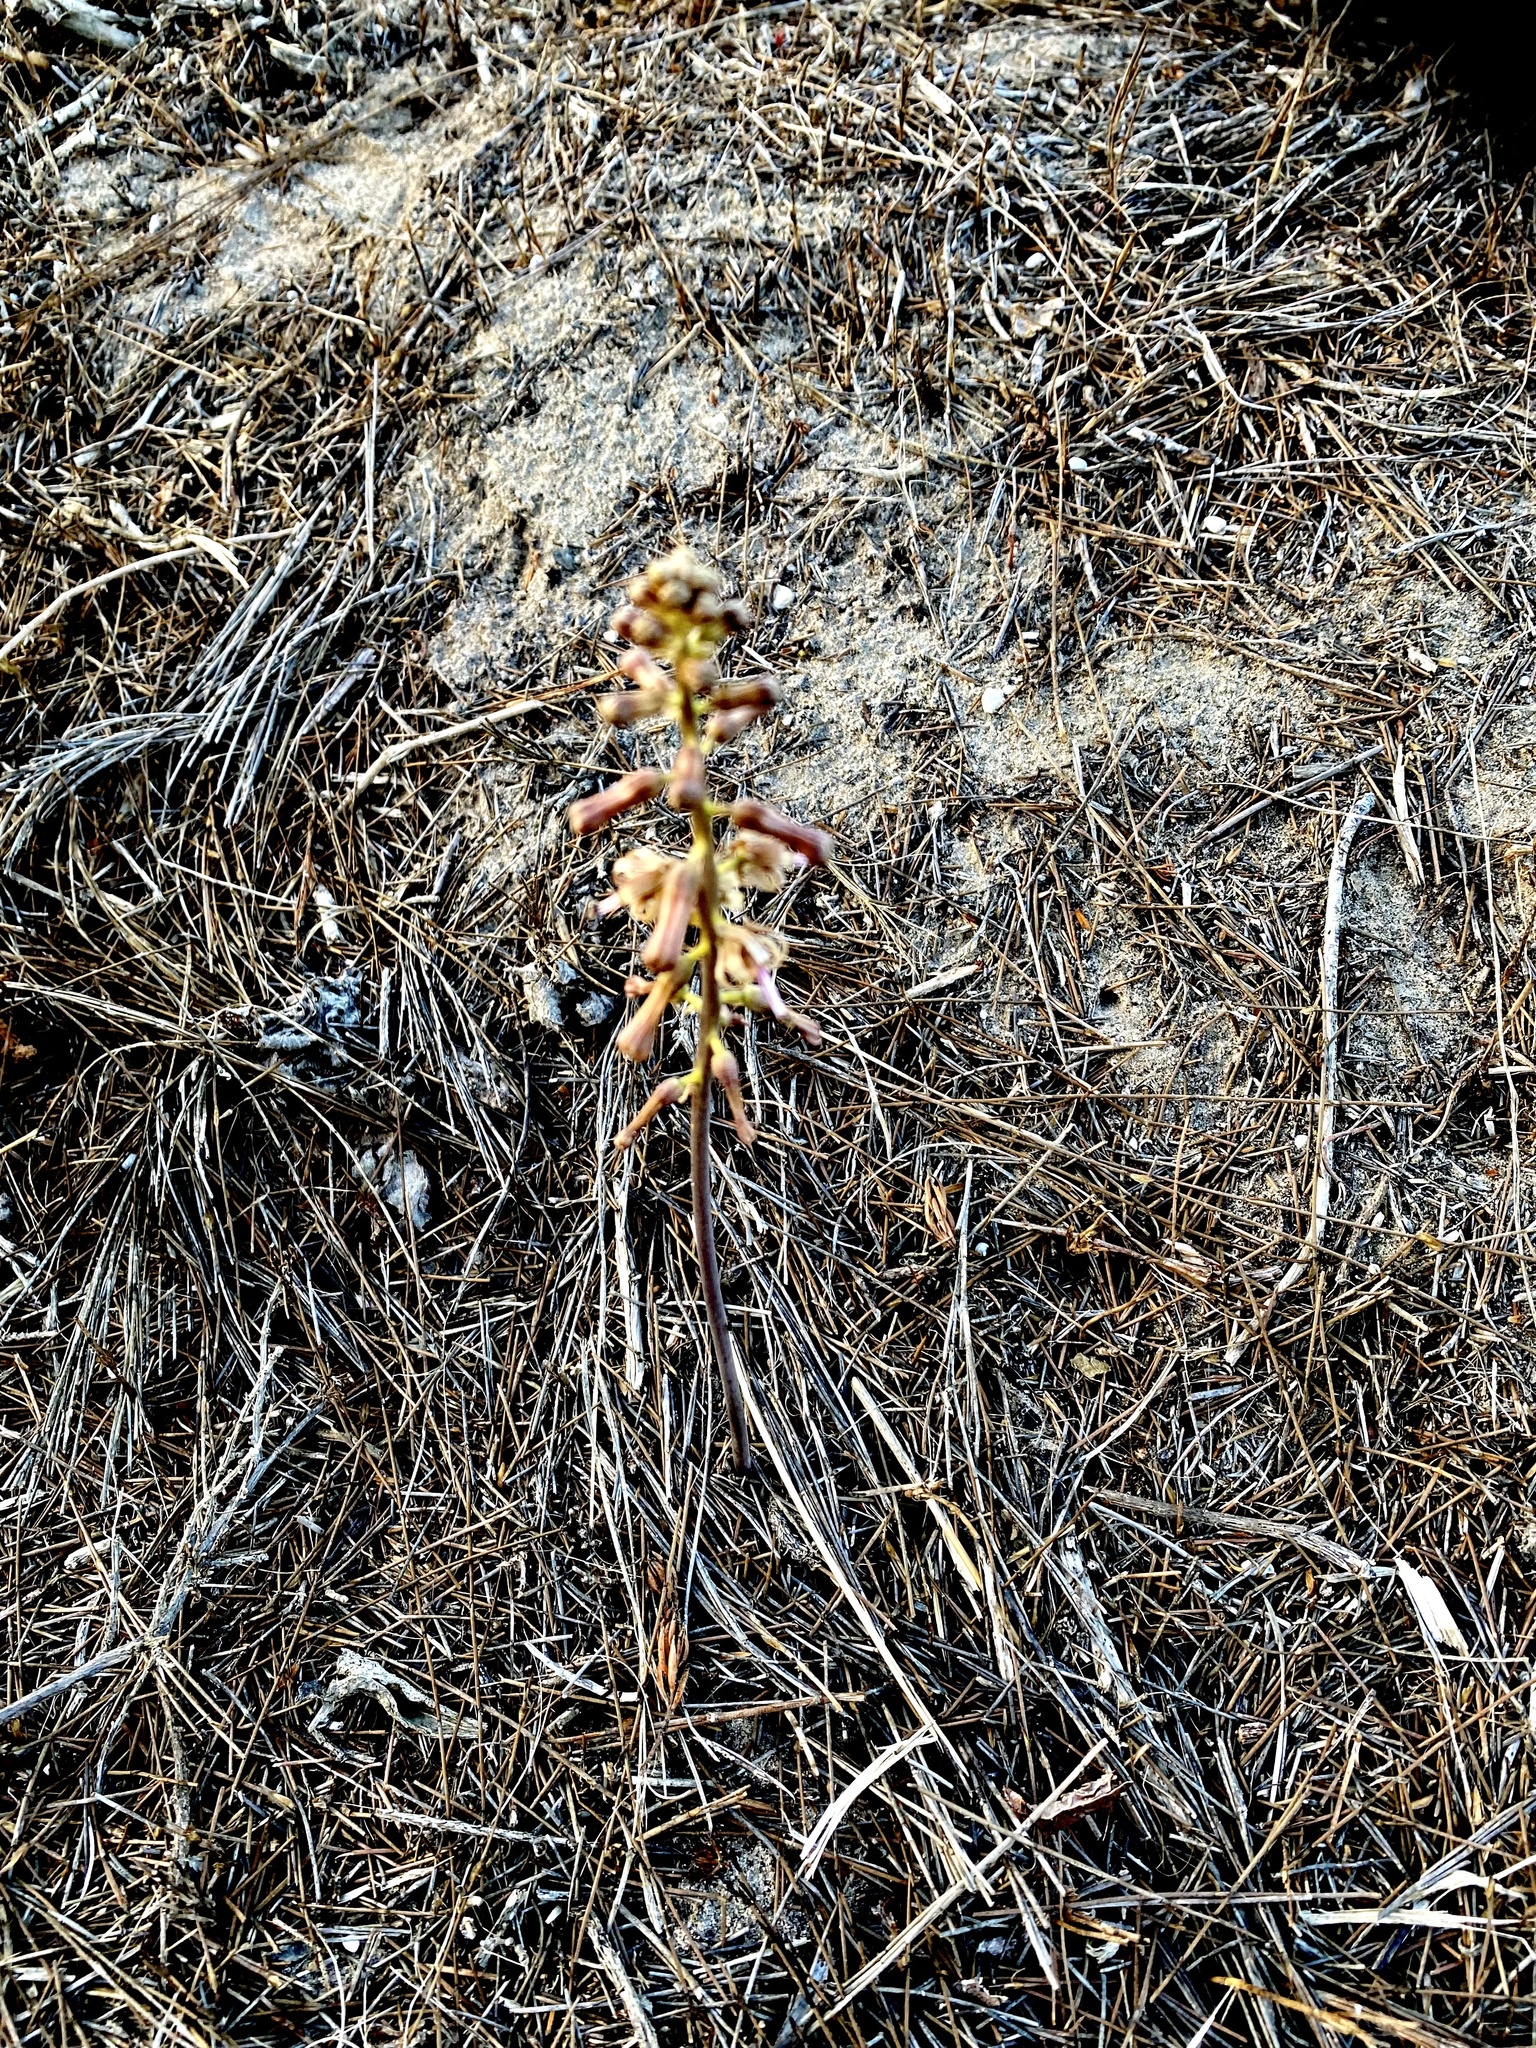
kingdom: Plantae
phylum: Tracheophyta
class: Liliopsida
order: Asparagales
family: Asparagaceae
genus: Drimia
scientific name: Drimia elata
